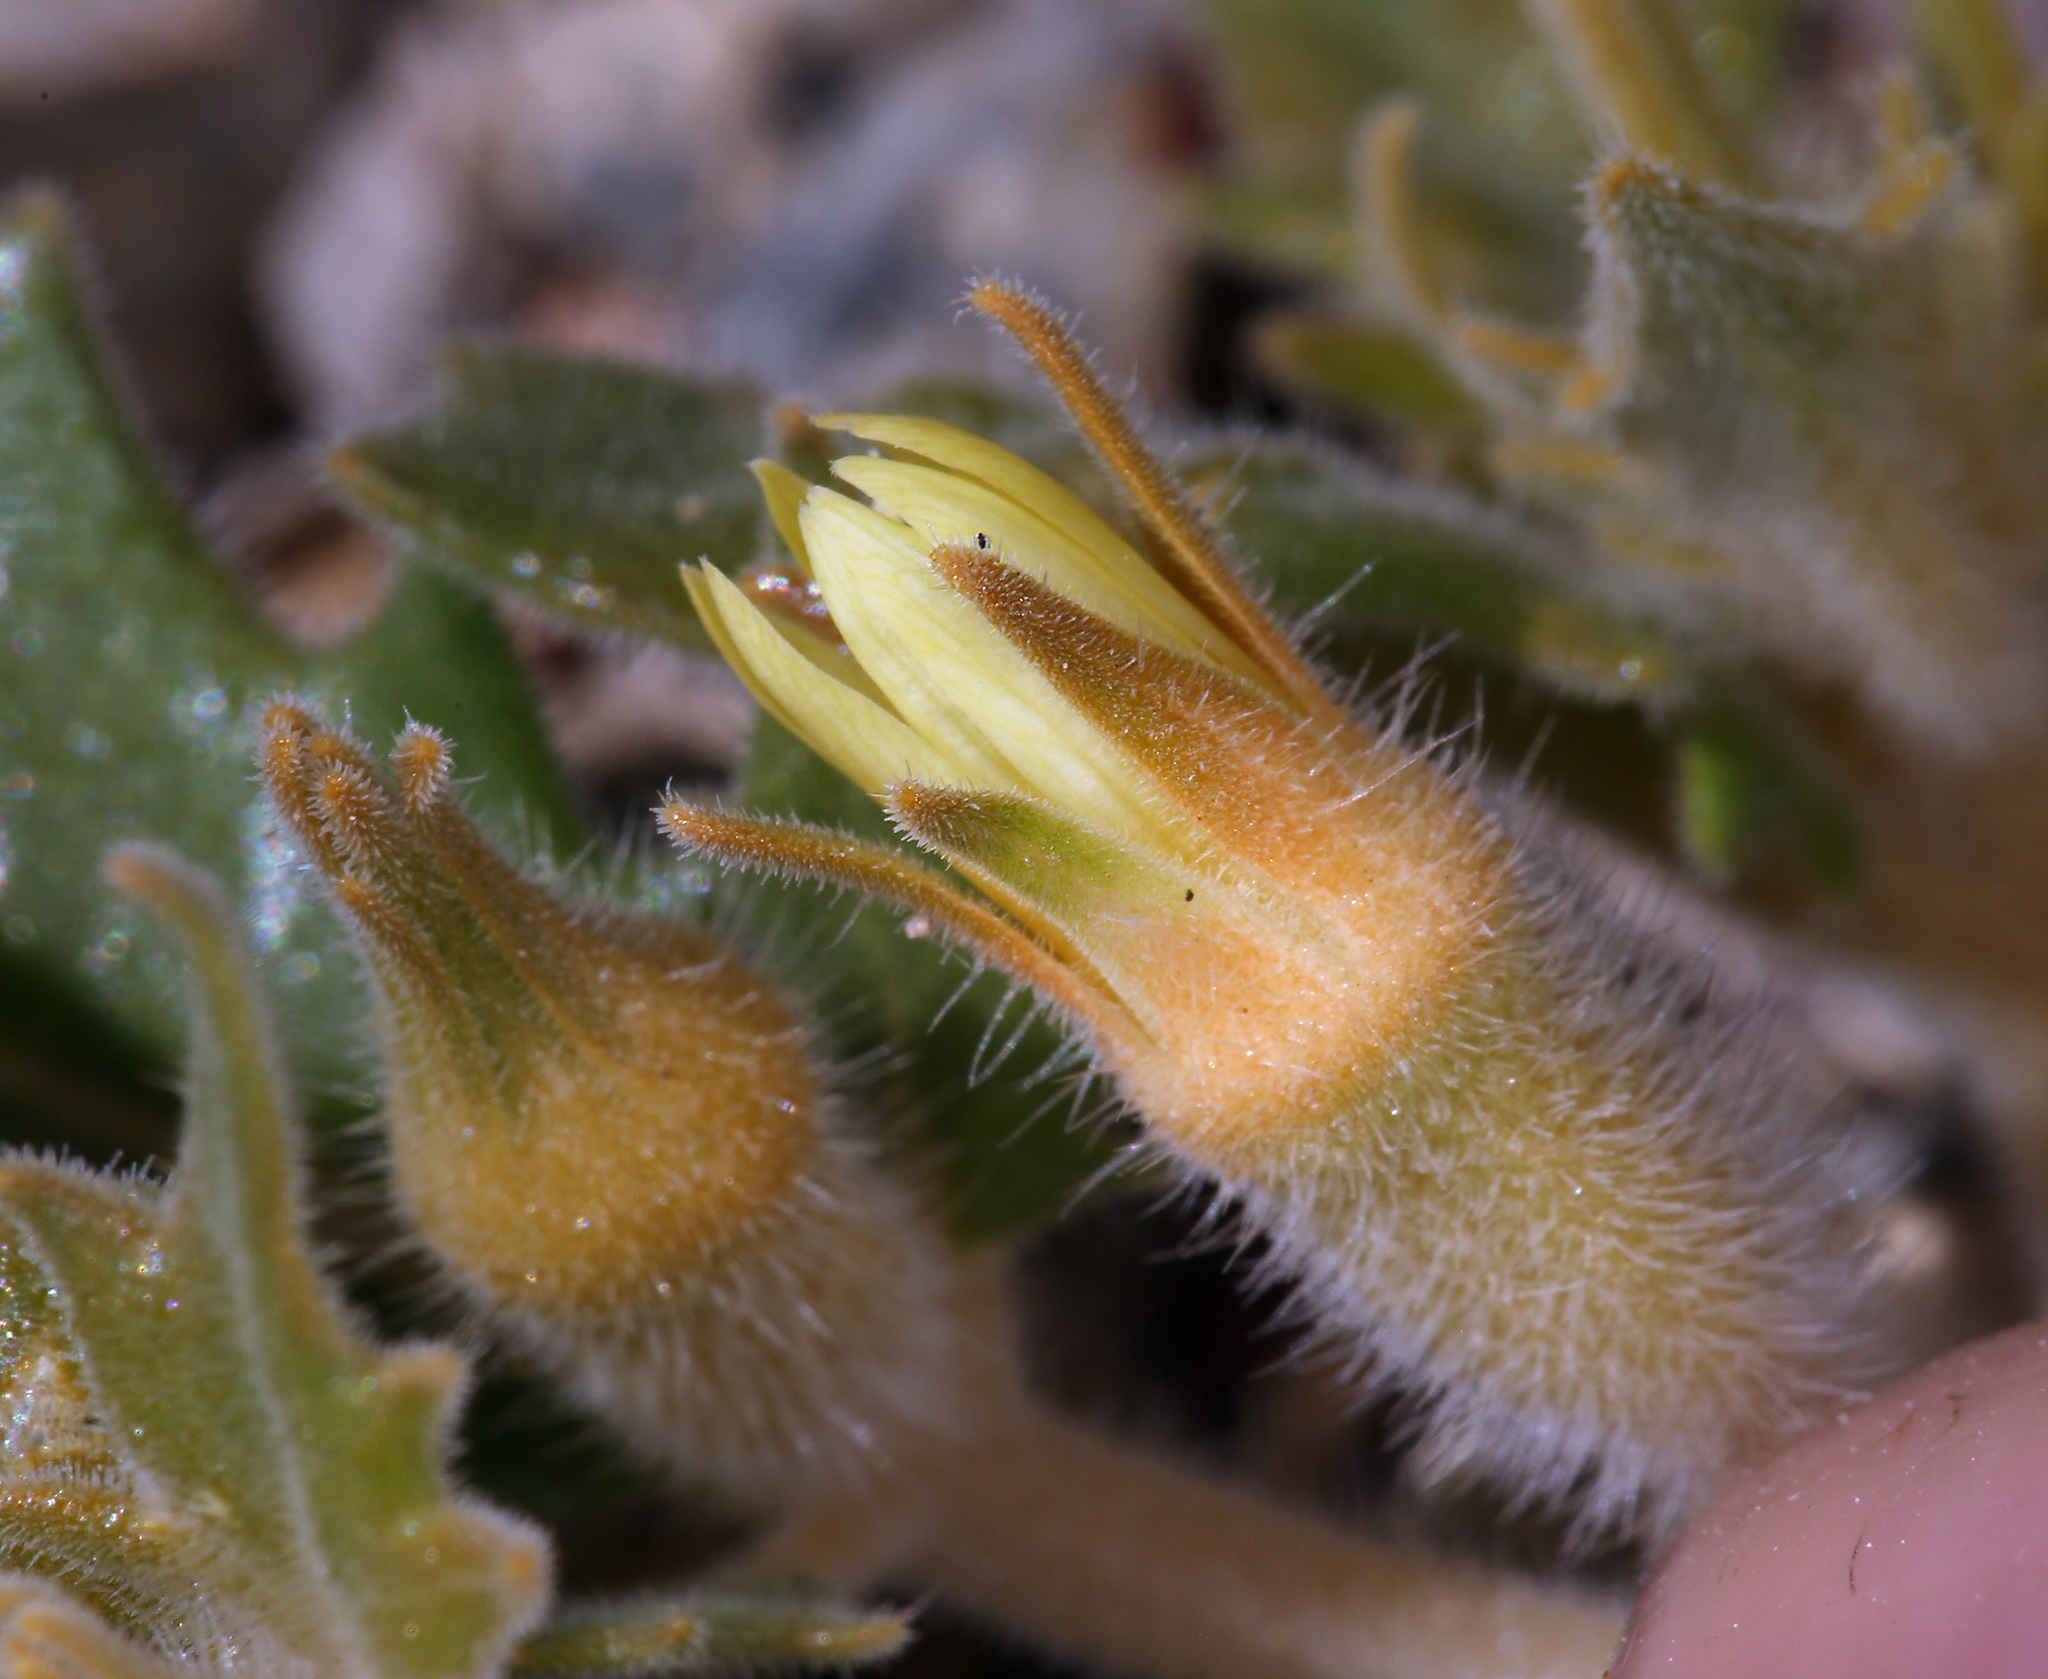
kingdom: Plantae
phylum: Tracheophyta
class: Magnoliopsida
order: Cornales
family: Loasaceae
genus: Mentzelia
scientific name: Mentzelia reflexa
